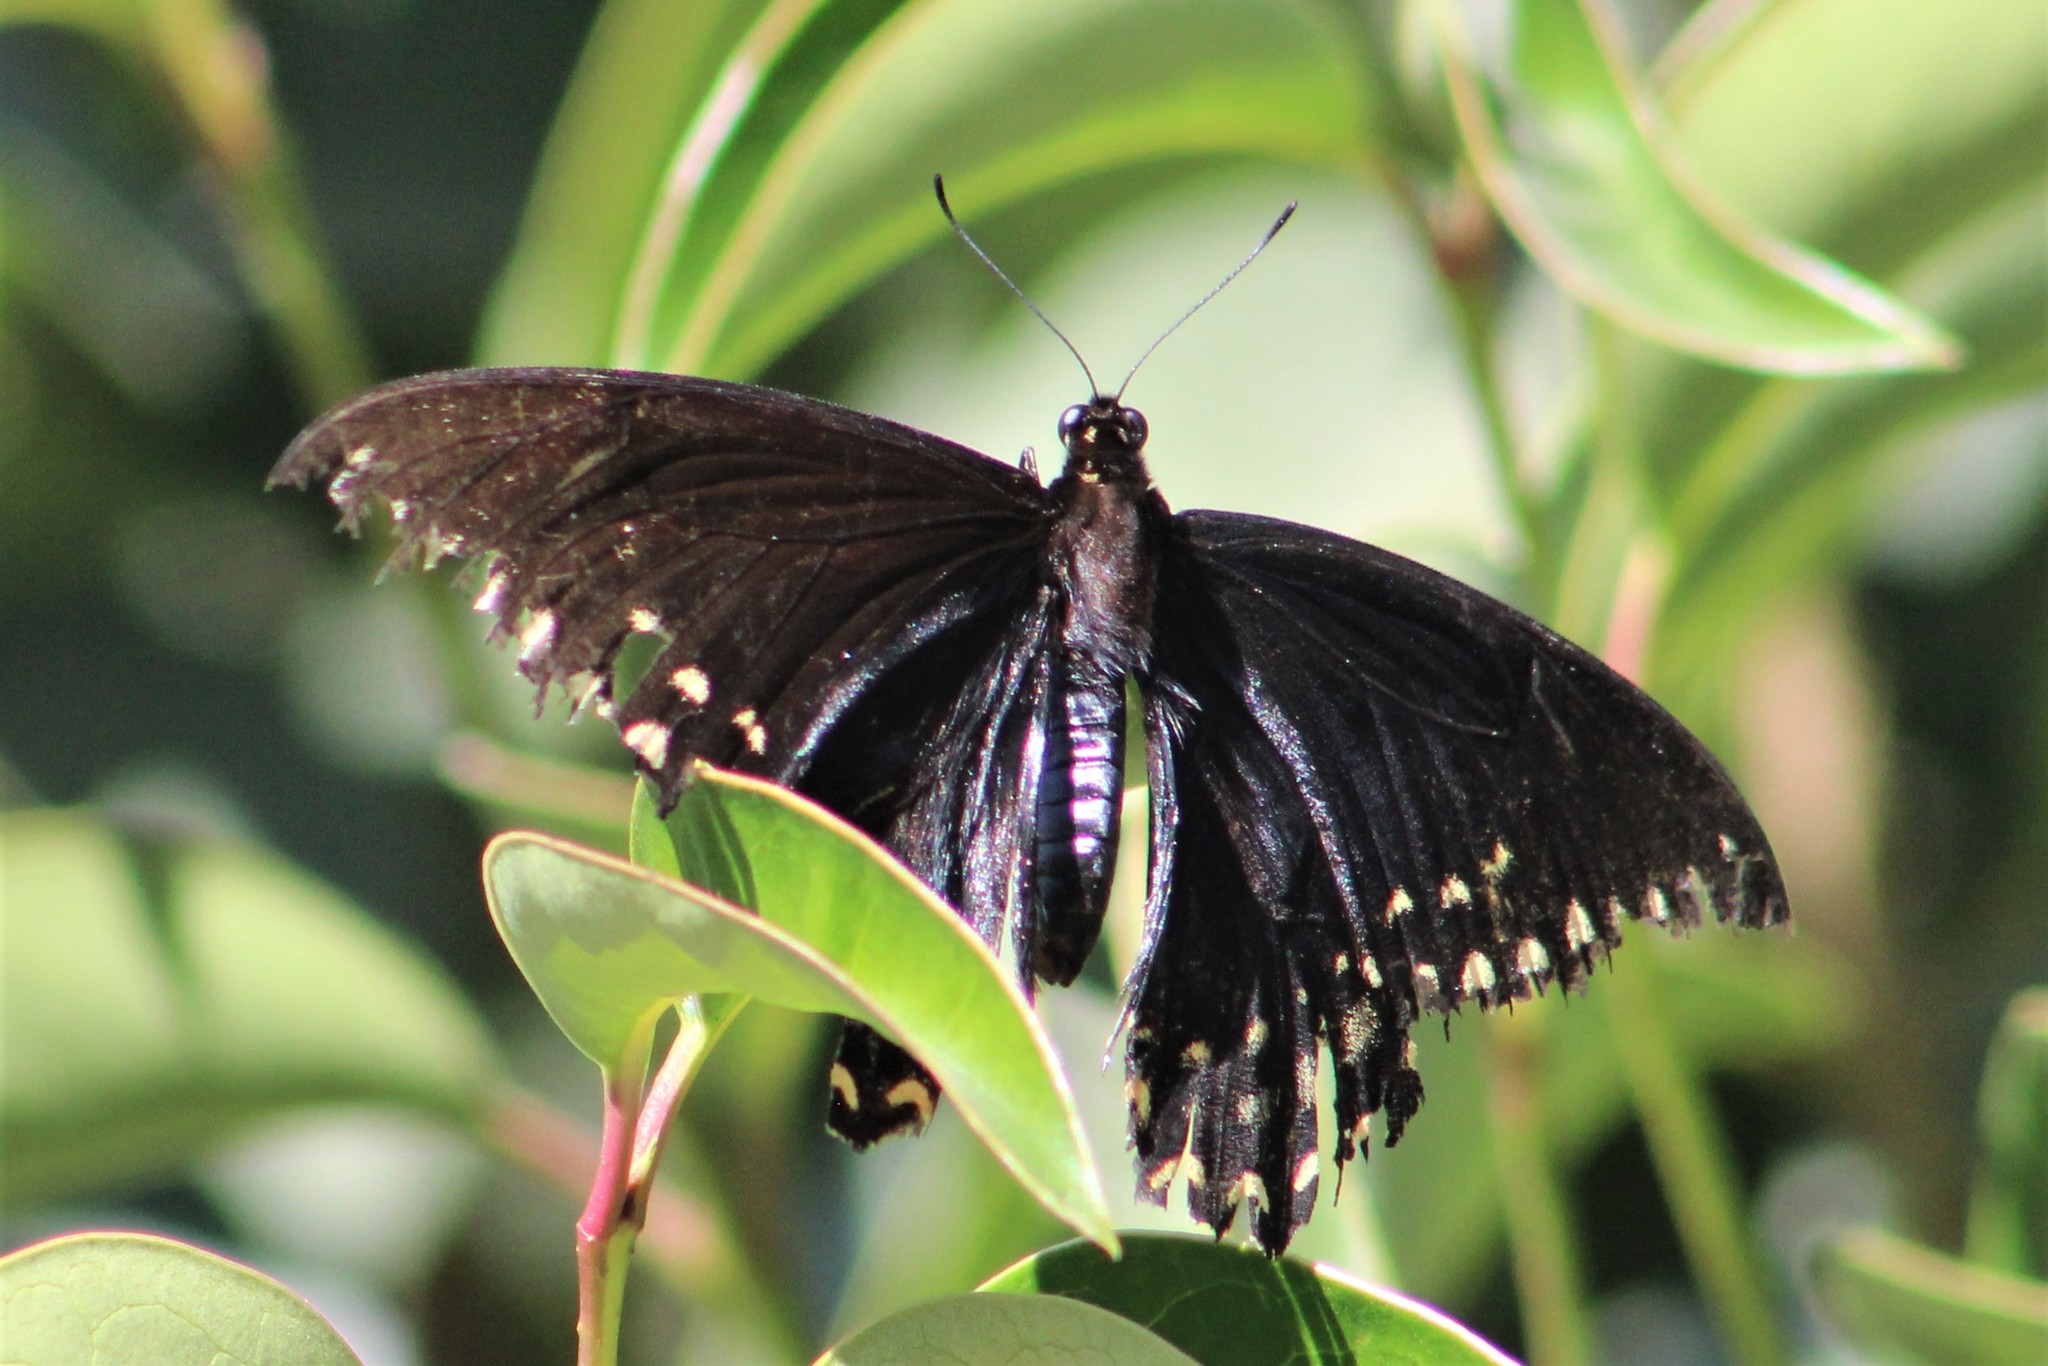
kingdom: Animalia
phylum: Arthropoda
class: Insecta
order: Lepidoptera
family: Papilionidae
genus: Papilio
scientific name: Papilio menatius
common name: Victorine swallowtail
